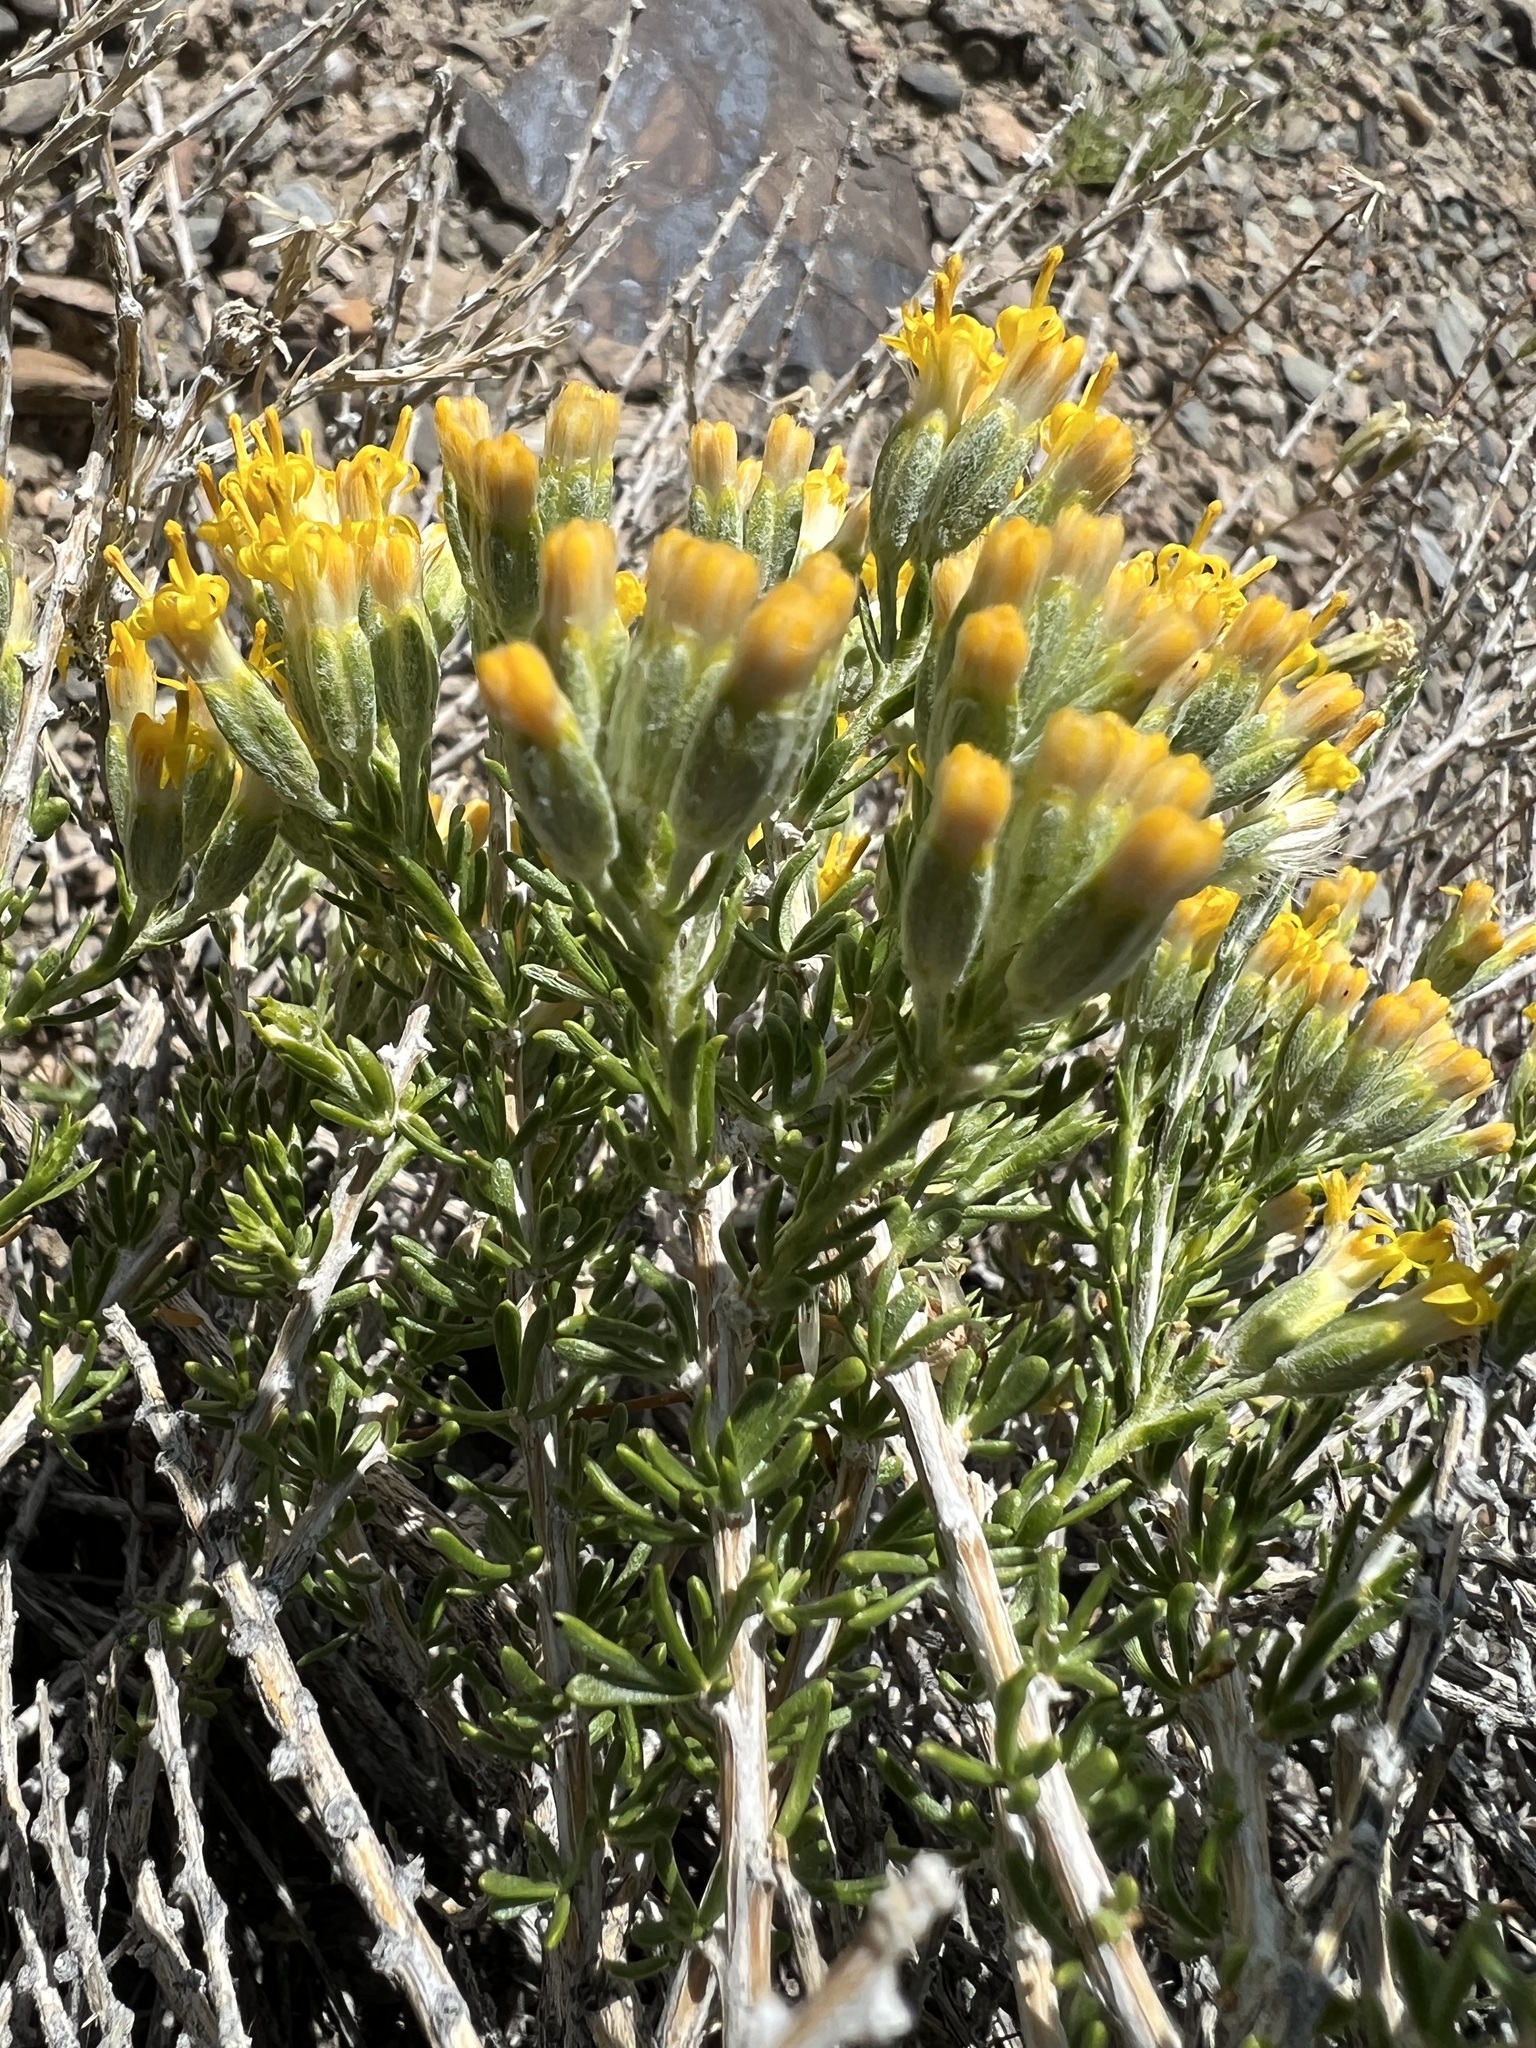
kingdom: Plantae
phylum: Tracheophyta
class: Magnoliopsida
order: Asterales
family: Asteraceae
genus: Tetradymia
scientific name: Tetradymia glabrata
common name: Smooth tetradymia
